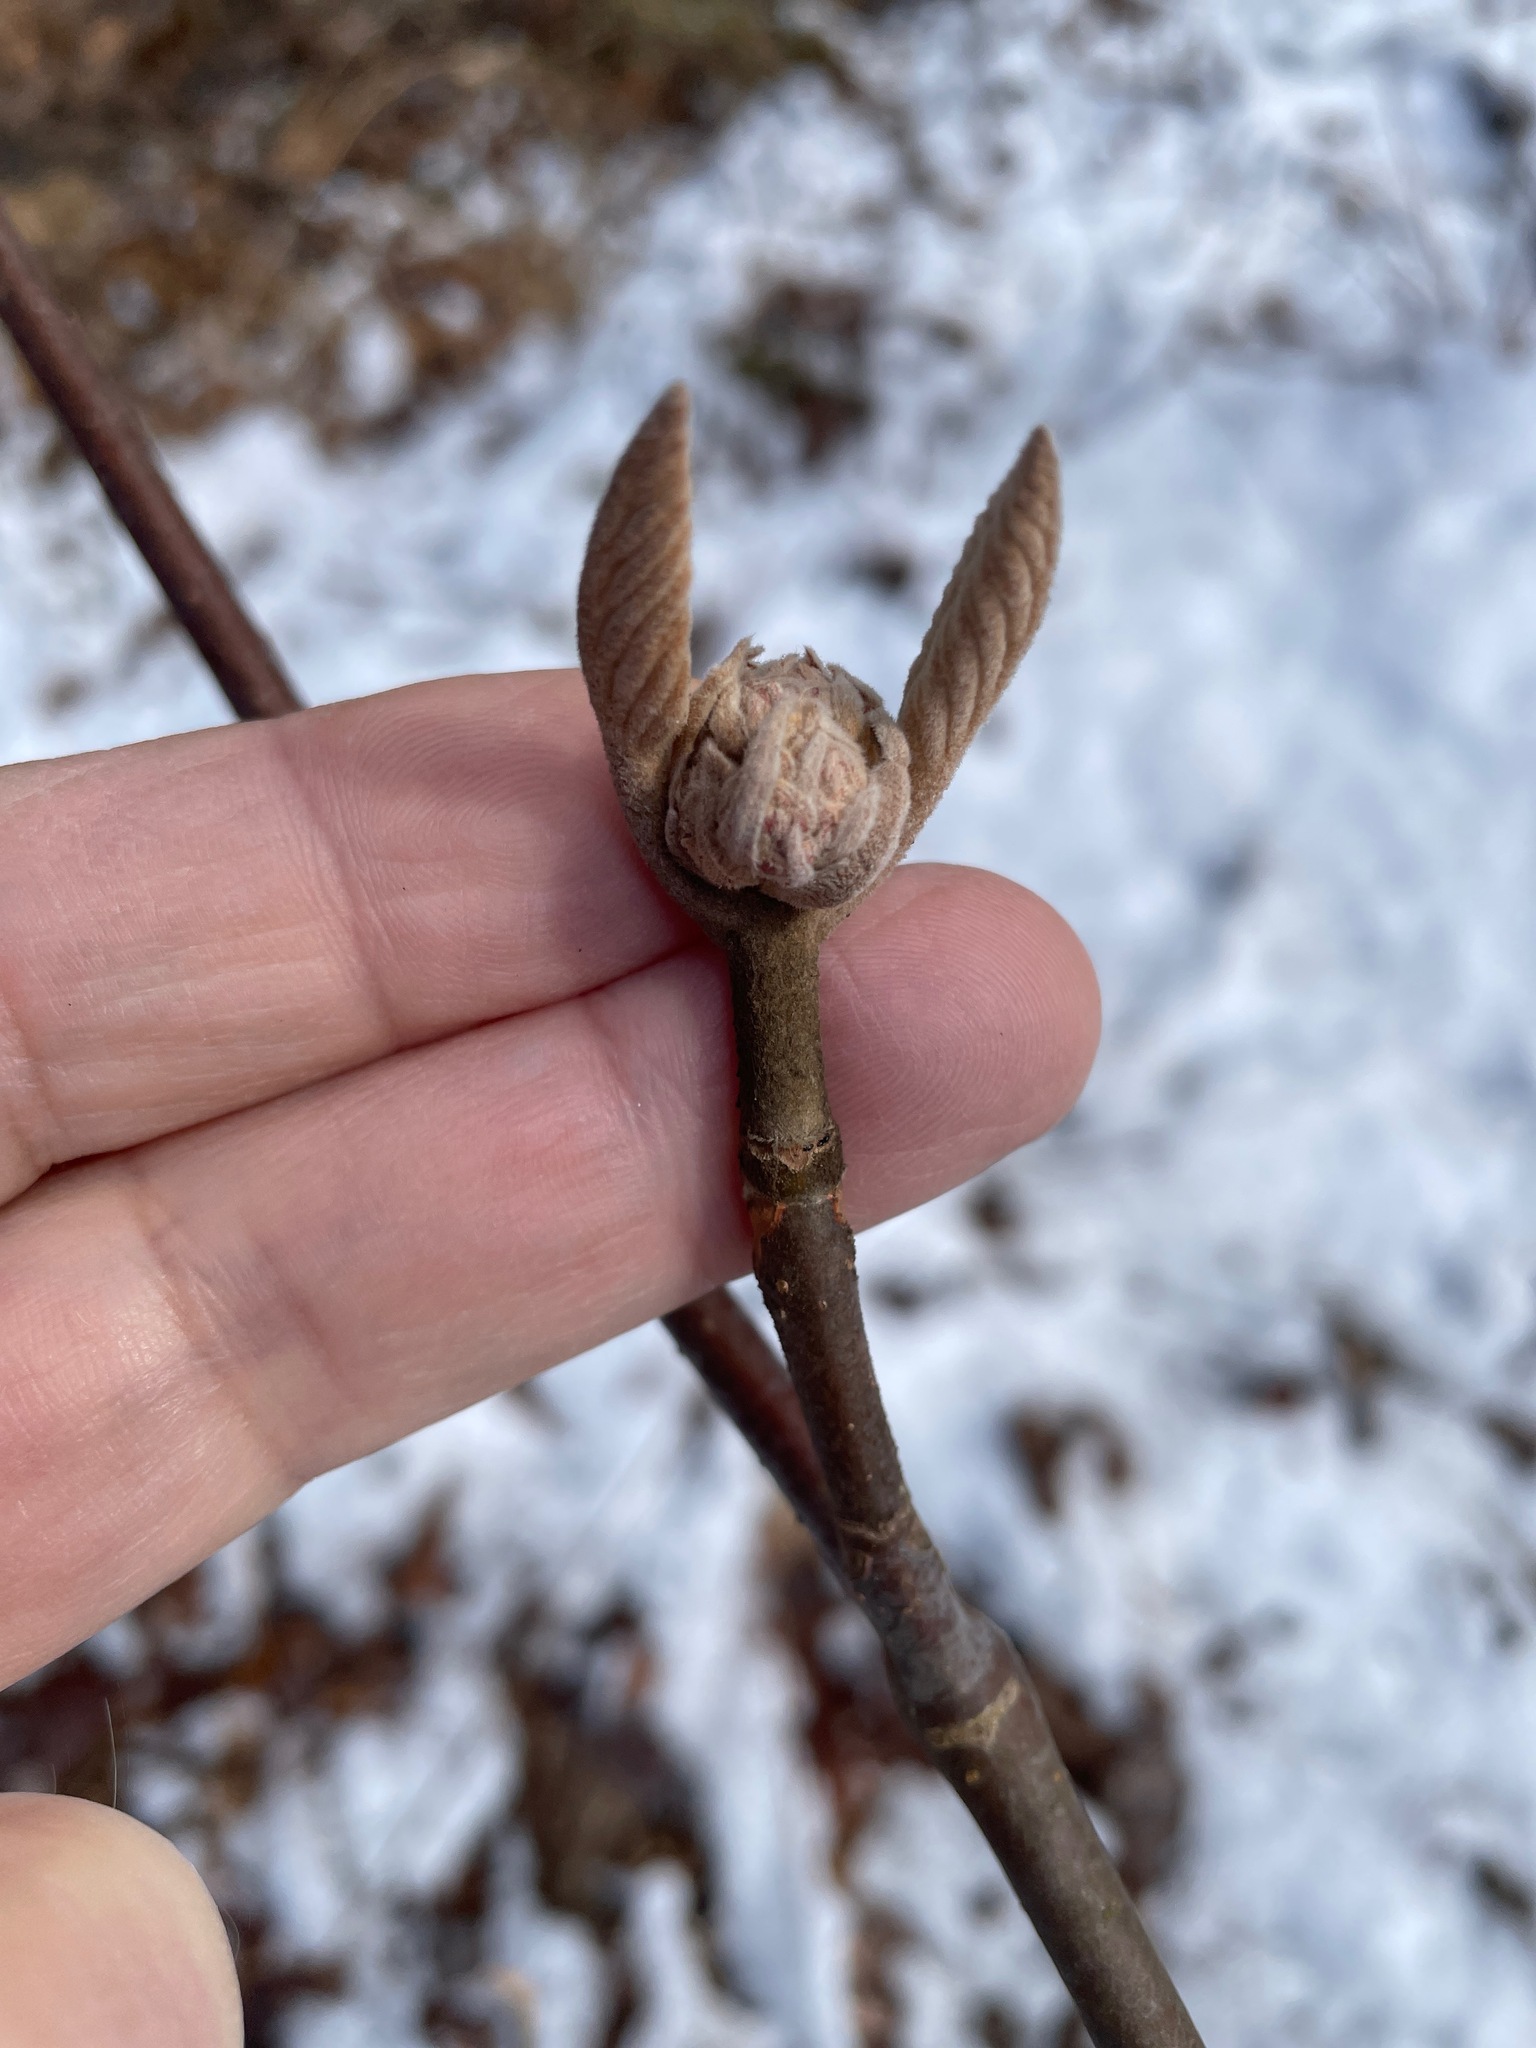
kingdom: Plantae
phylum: Tracheophyta
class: Magnoliopsida
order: Dipsacales
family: Viburnaceae
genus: Viburnum
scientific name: Viburnum lantanoides
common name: Hobblebush
